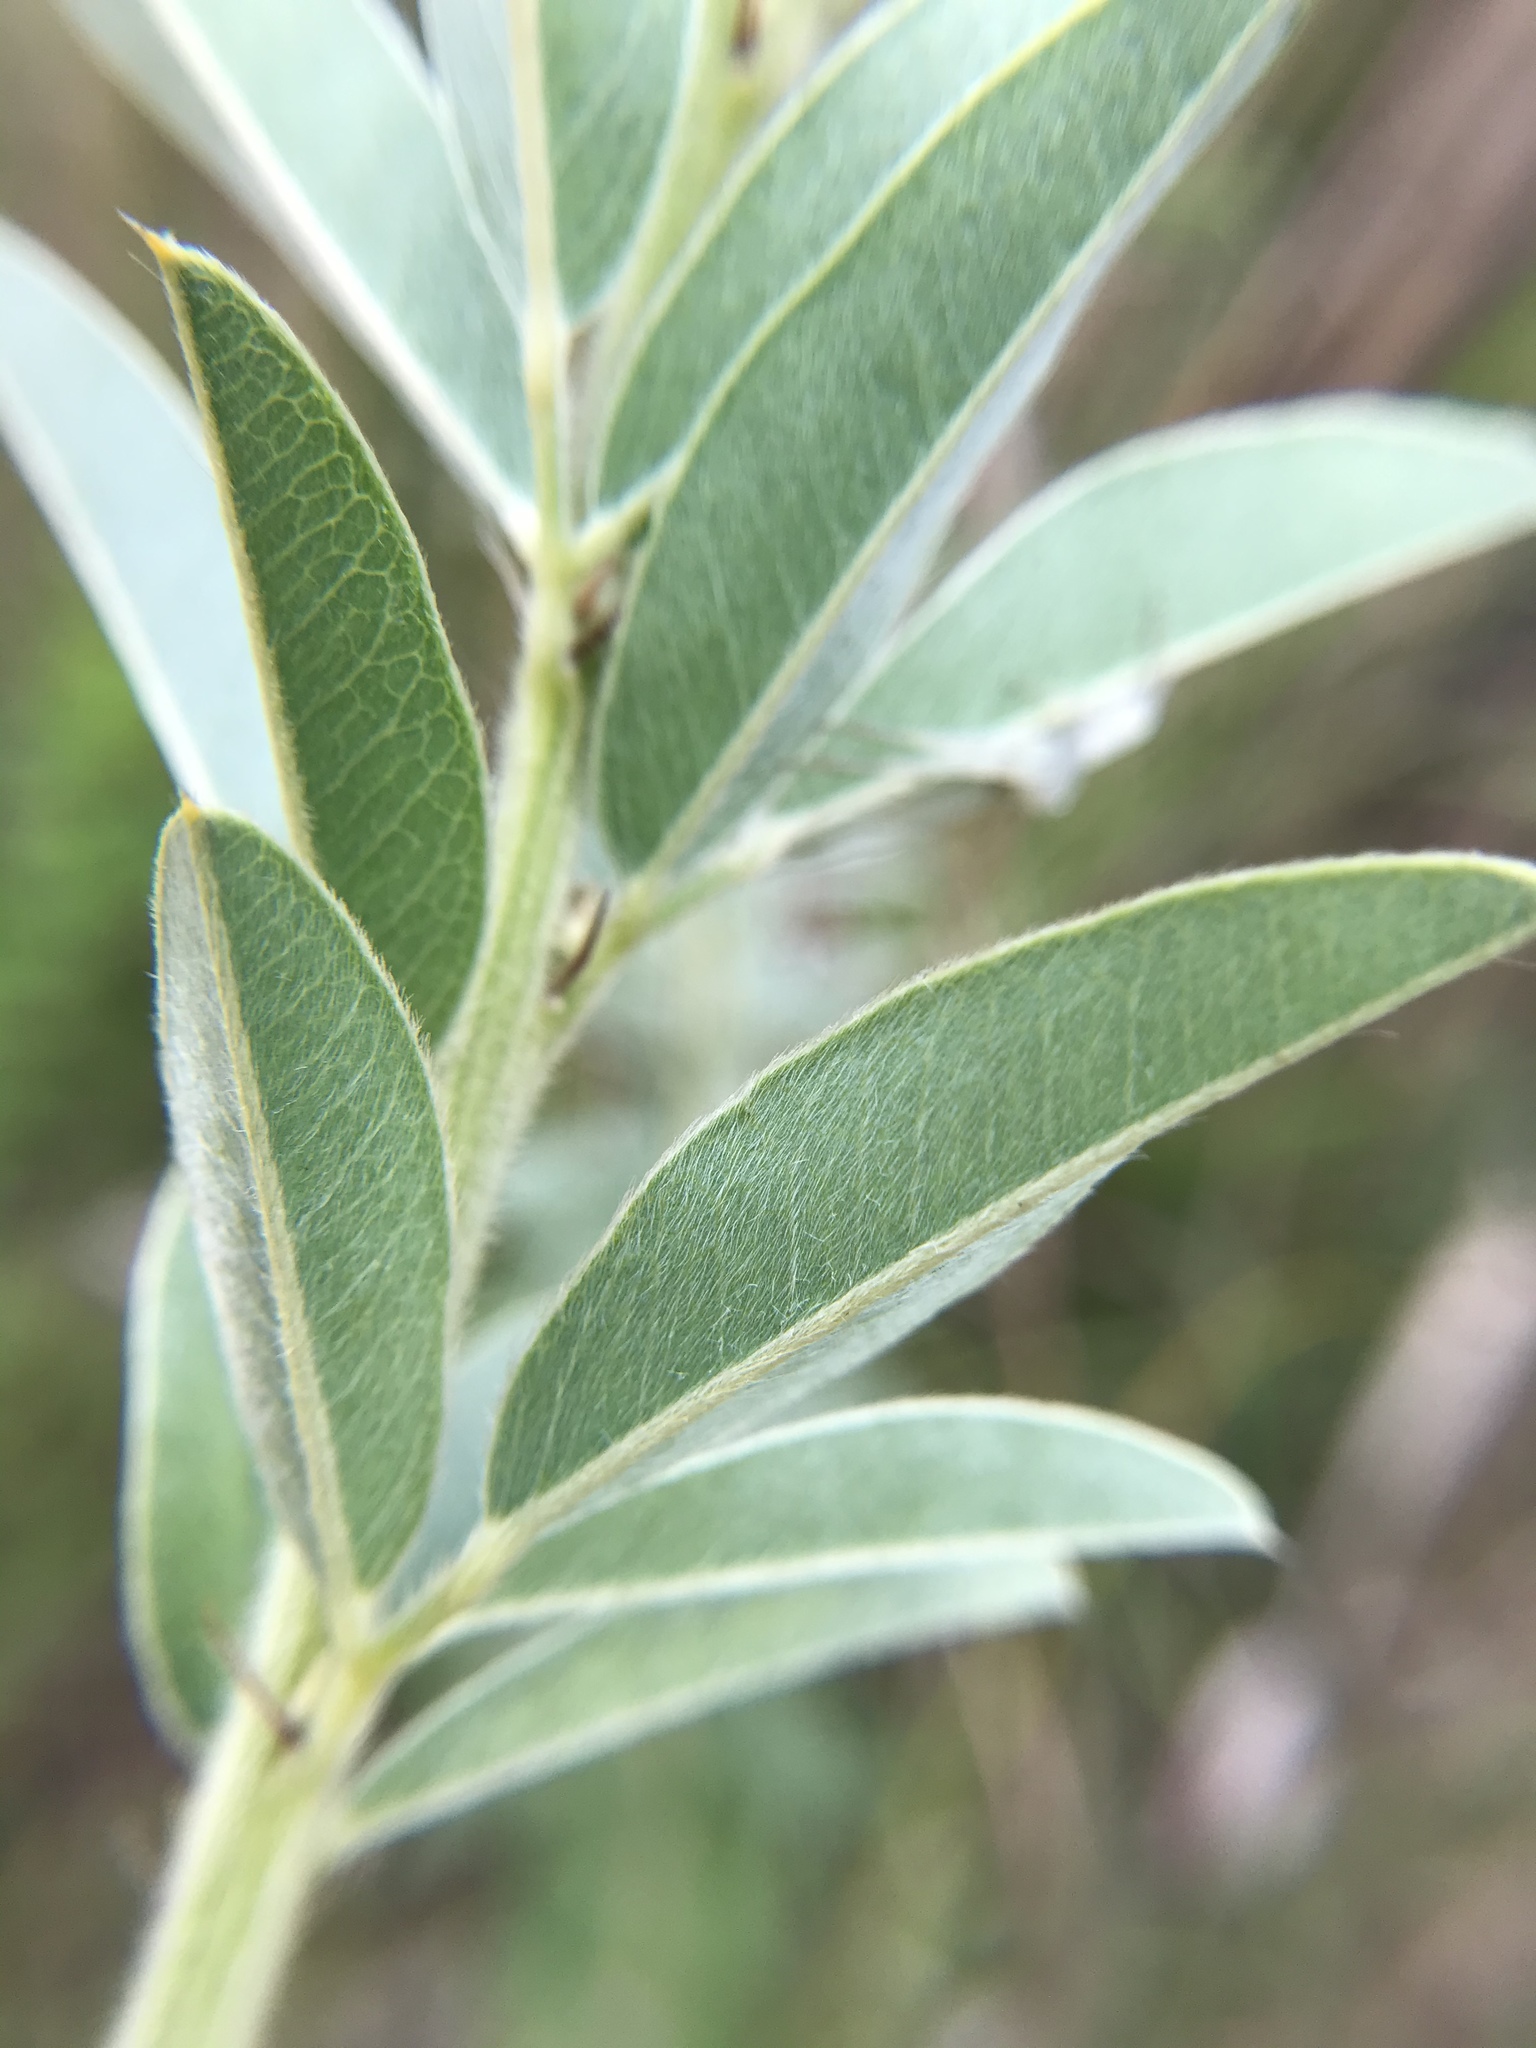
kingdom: Plantae
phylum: Tracheophyta
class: Magnoliopsida
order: Fabales
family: Fabaceae
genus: Lespedeza
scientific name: Lespedeza capitata
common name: Dusty clover
